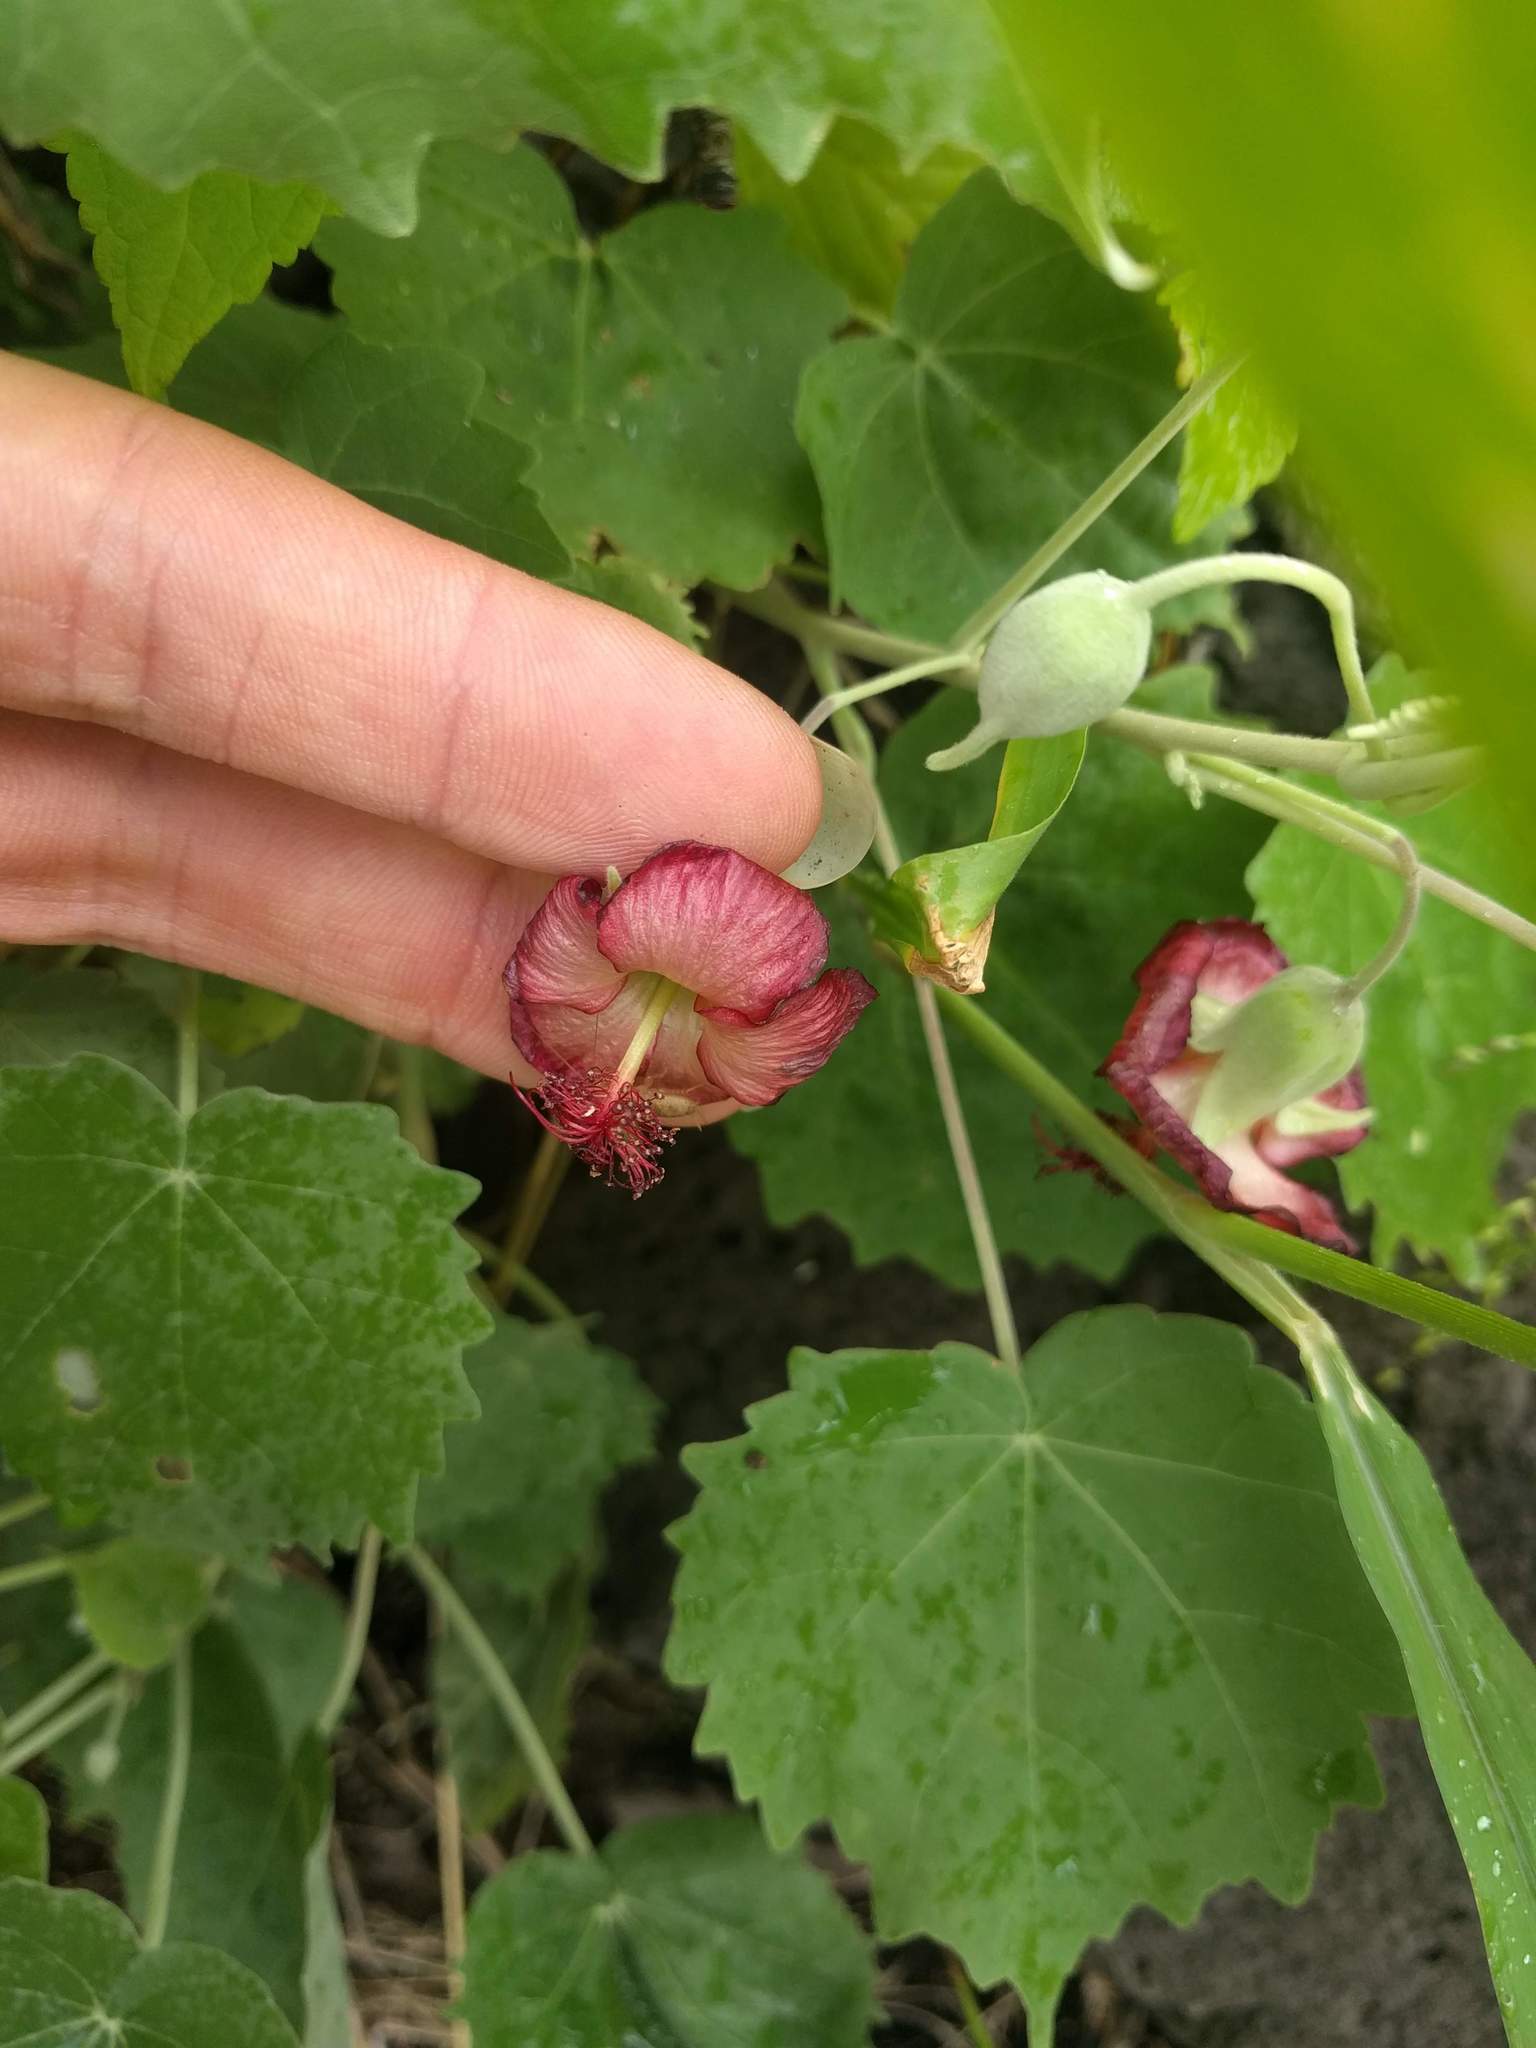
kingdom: Plantae
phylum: Tracheophyta
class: Magnoliopsida
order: Malvales
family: Malvaceae
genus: Abutilon
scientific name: Abutilon menziesii
